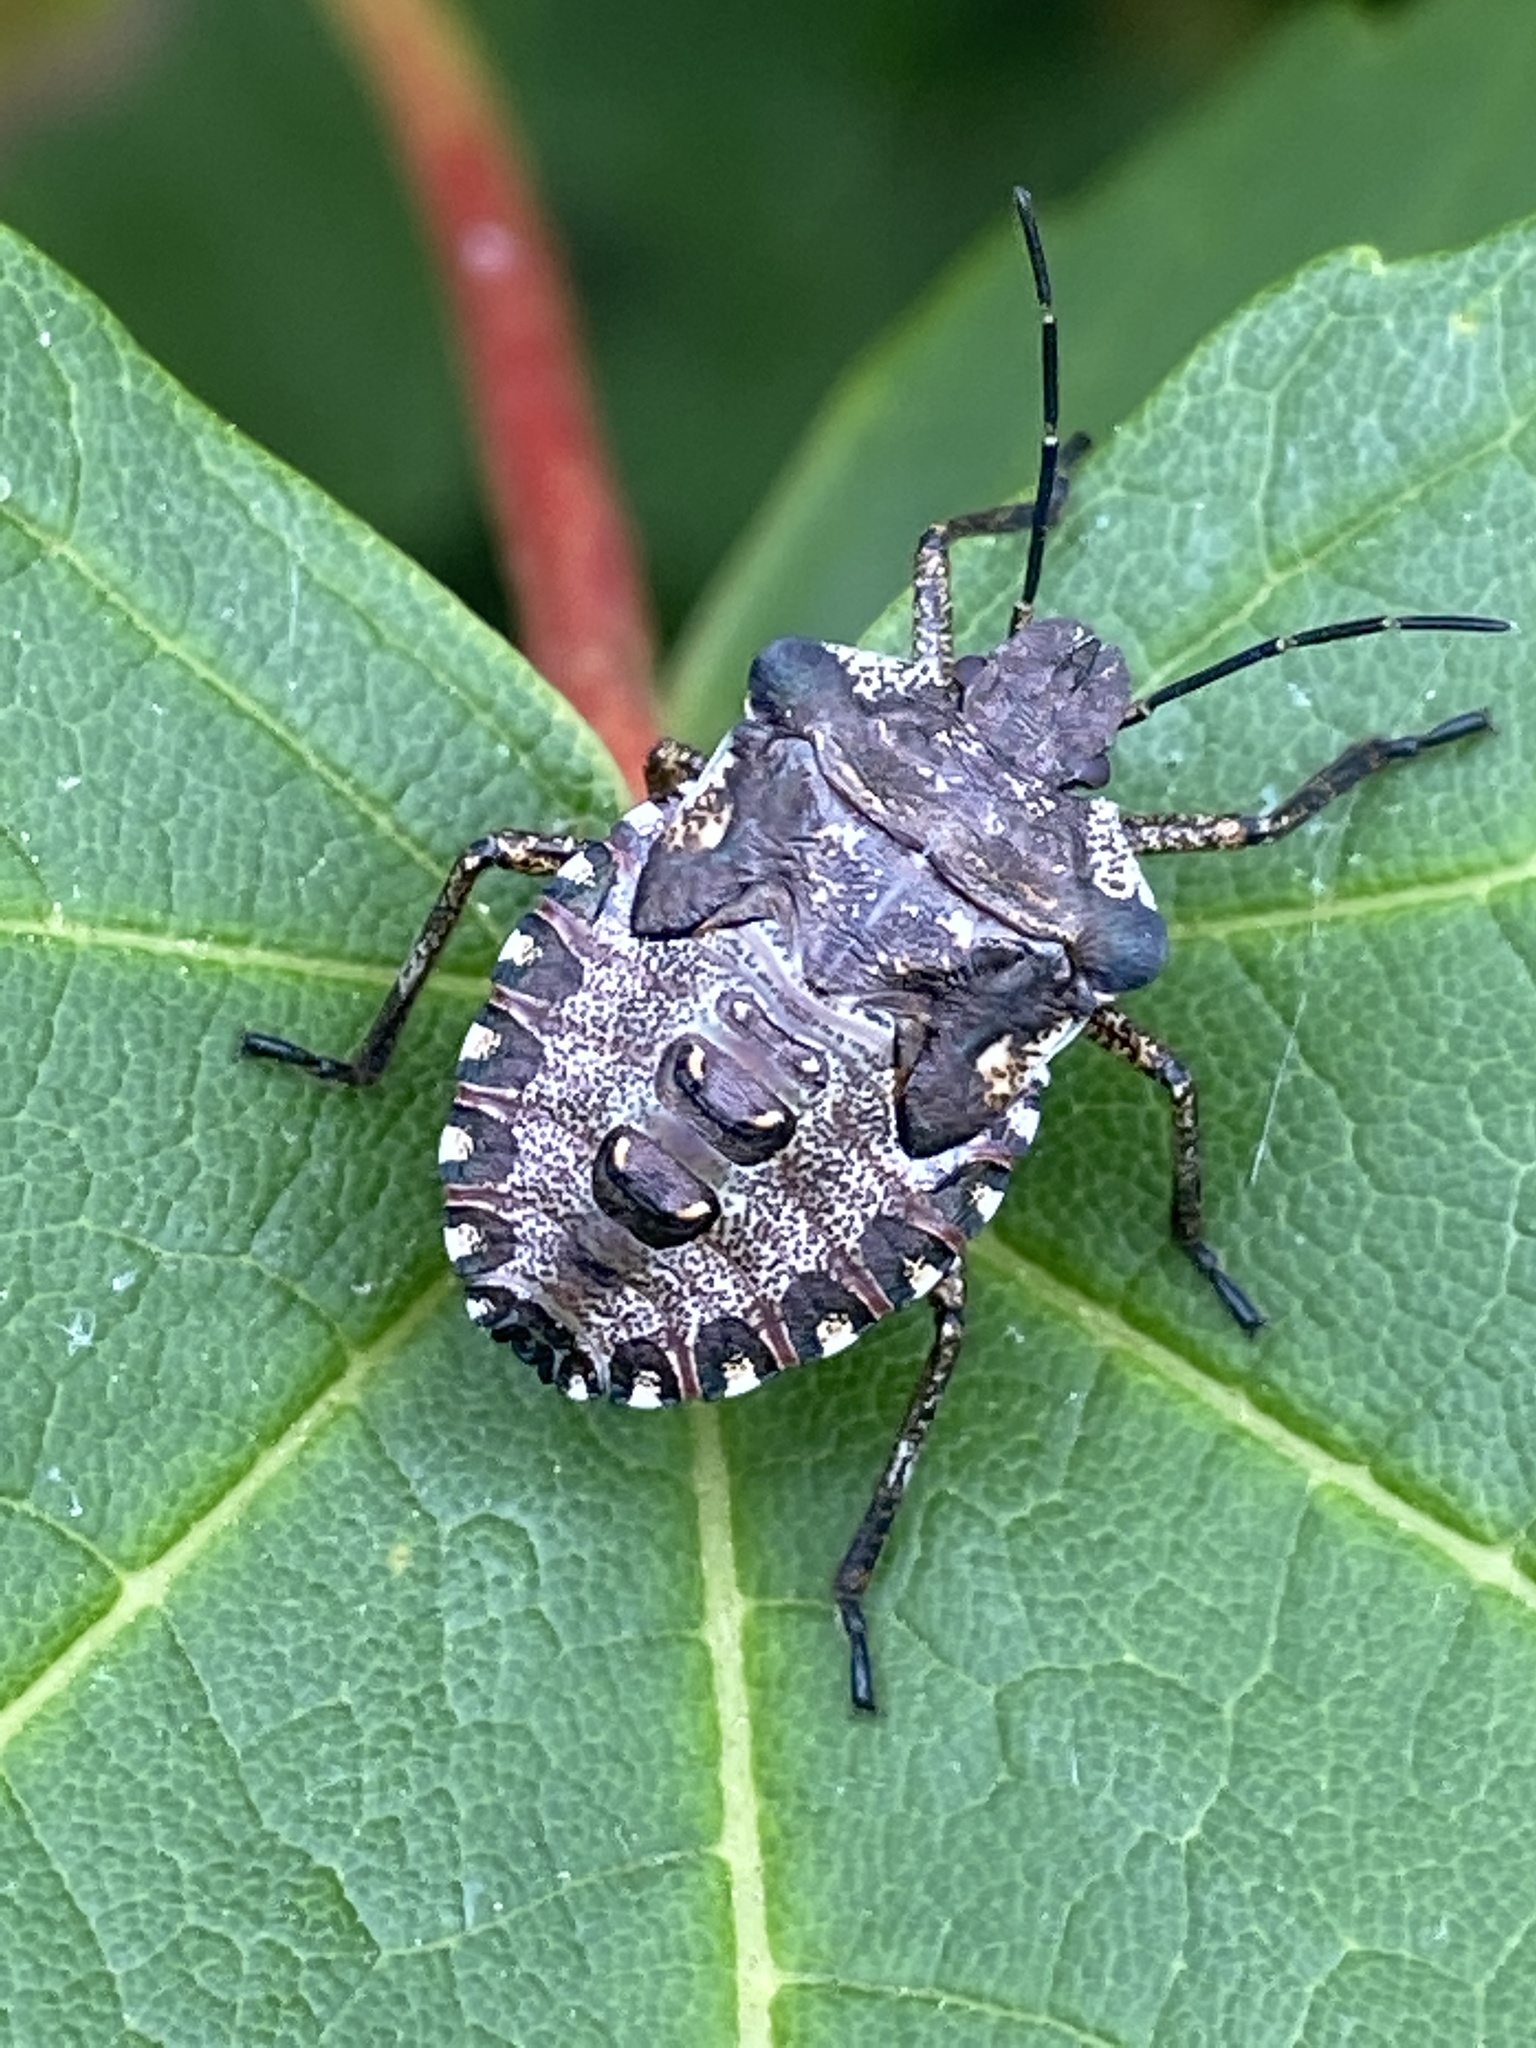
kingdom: Animalia
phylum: Arthropoda
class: Insecta
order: Hemiptera
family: Pentatomidae
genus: Pentatoma
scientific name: Pentatoma rufipes
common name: Forest bug
